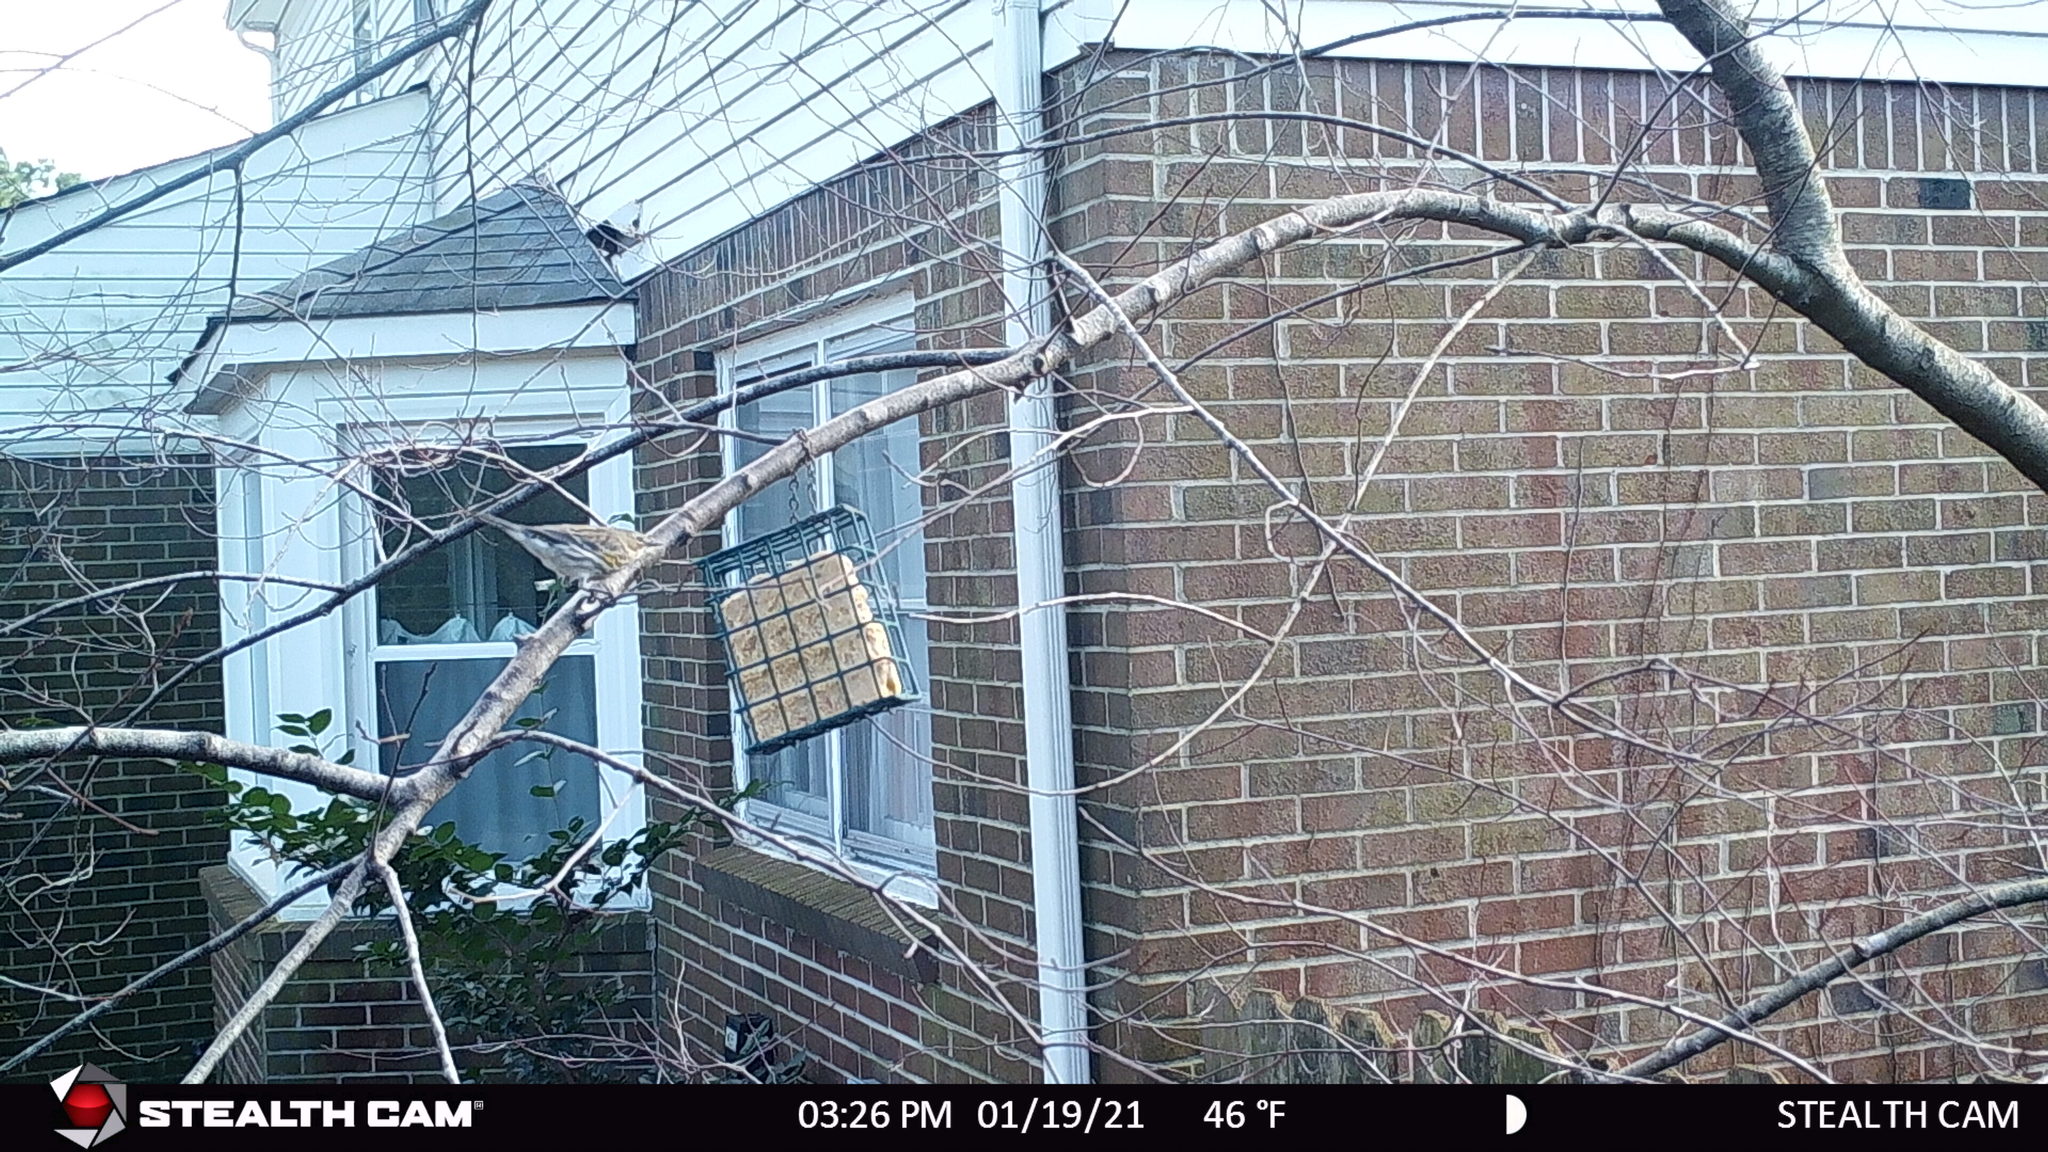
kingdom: Animalia
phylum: Chordata
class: Aves
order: Passeriformes
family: Parulidae
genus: Setophaga
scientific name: Setophaga coronata
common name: Myrtle warbler
